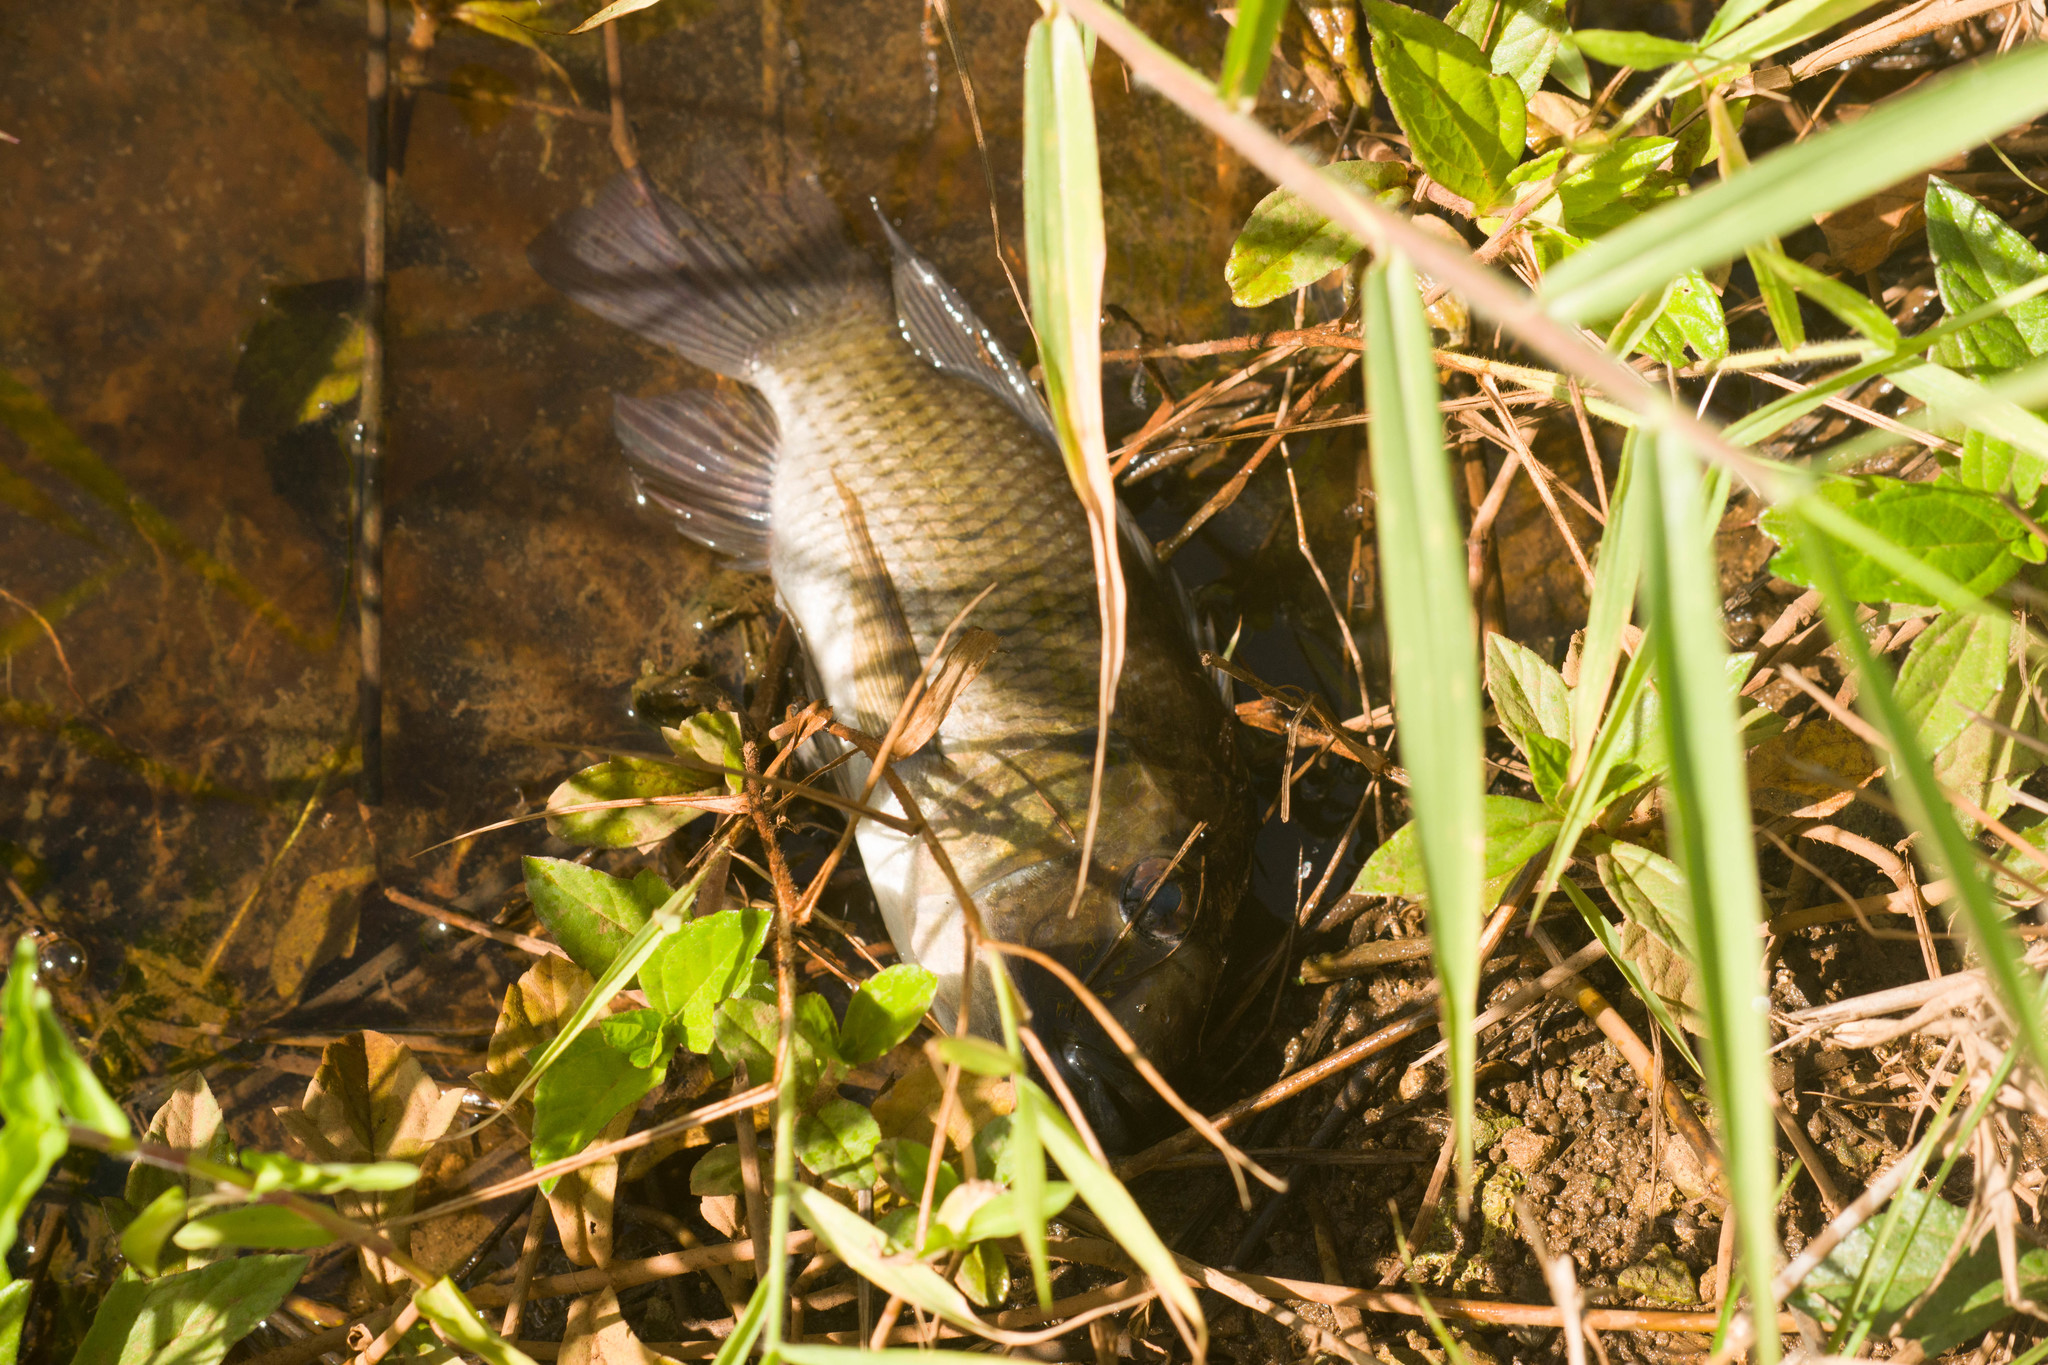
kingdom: Animalia
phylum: Chordata
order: Perciformes
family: Cichlidae
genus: Sarotherodon
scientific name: Sarotherodon melanotheron
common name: Blackchin tilapia
